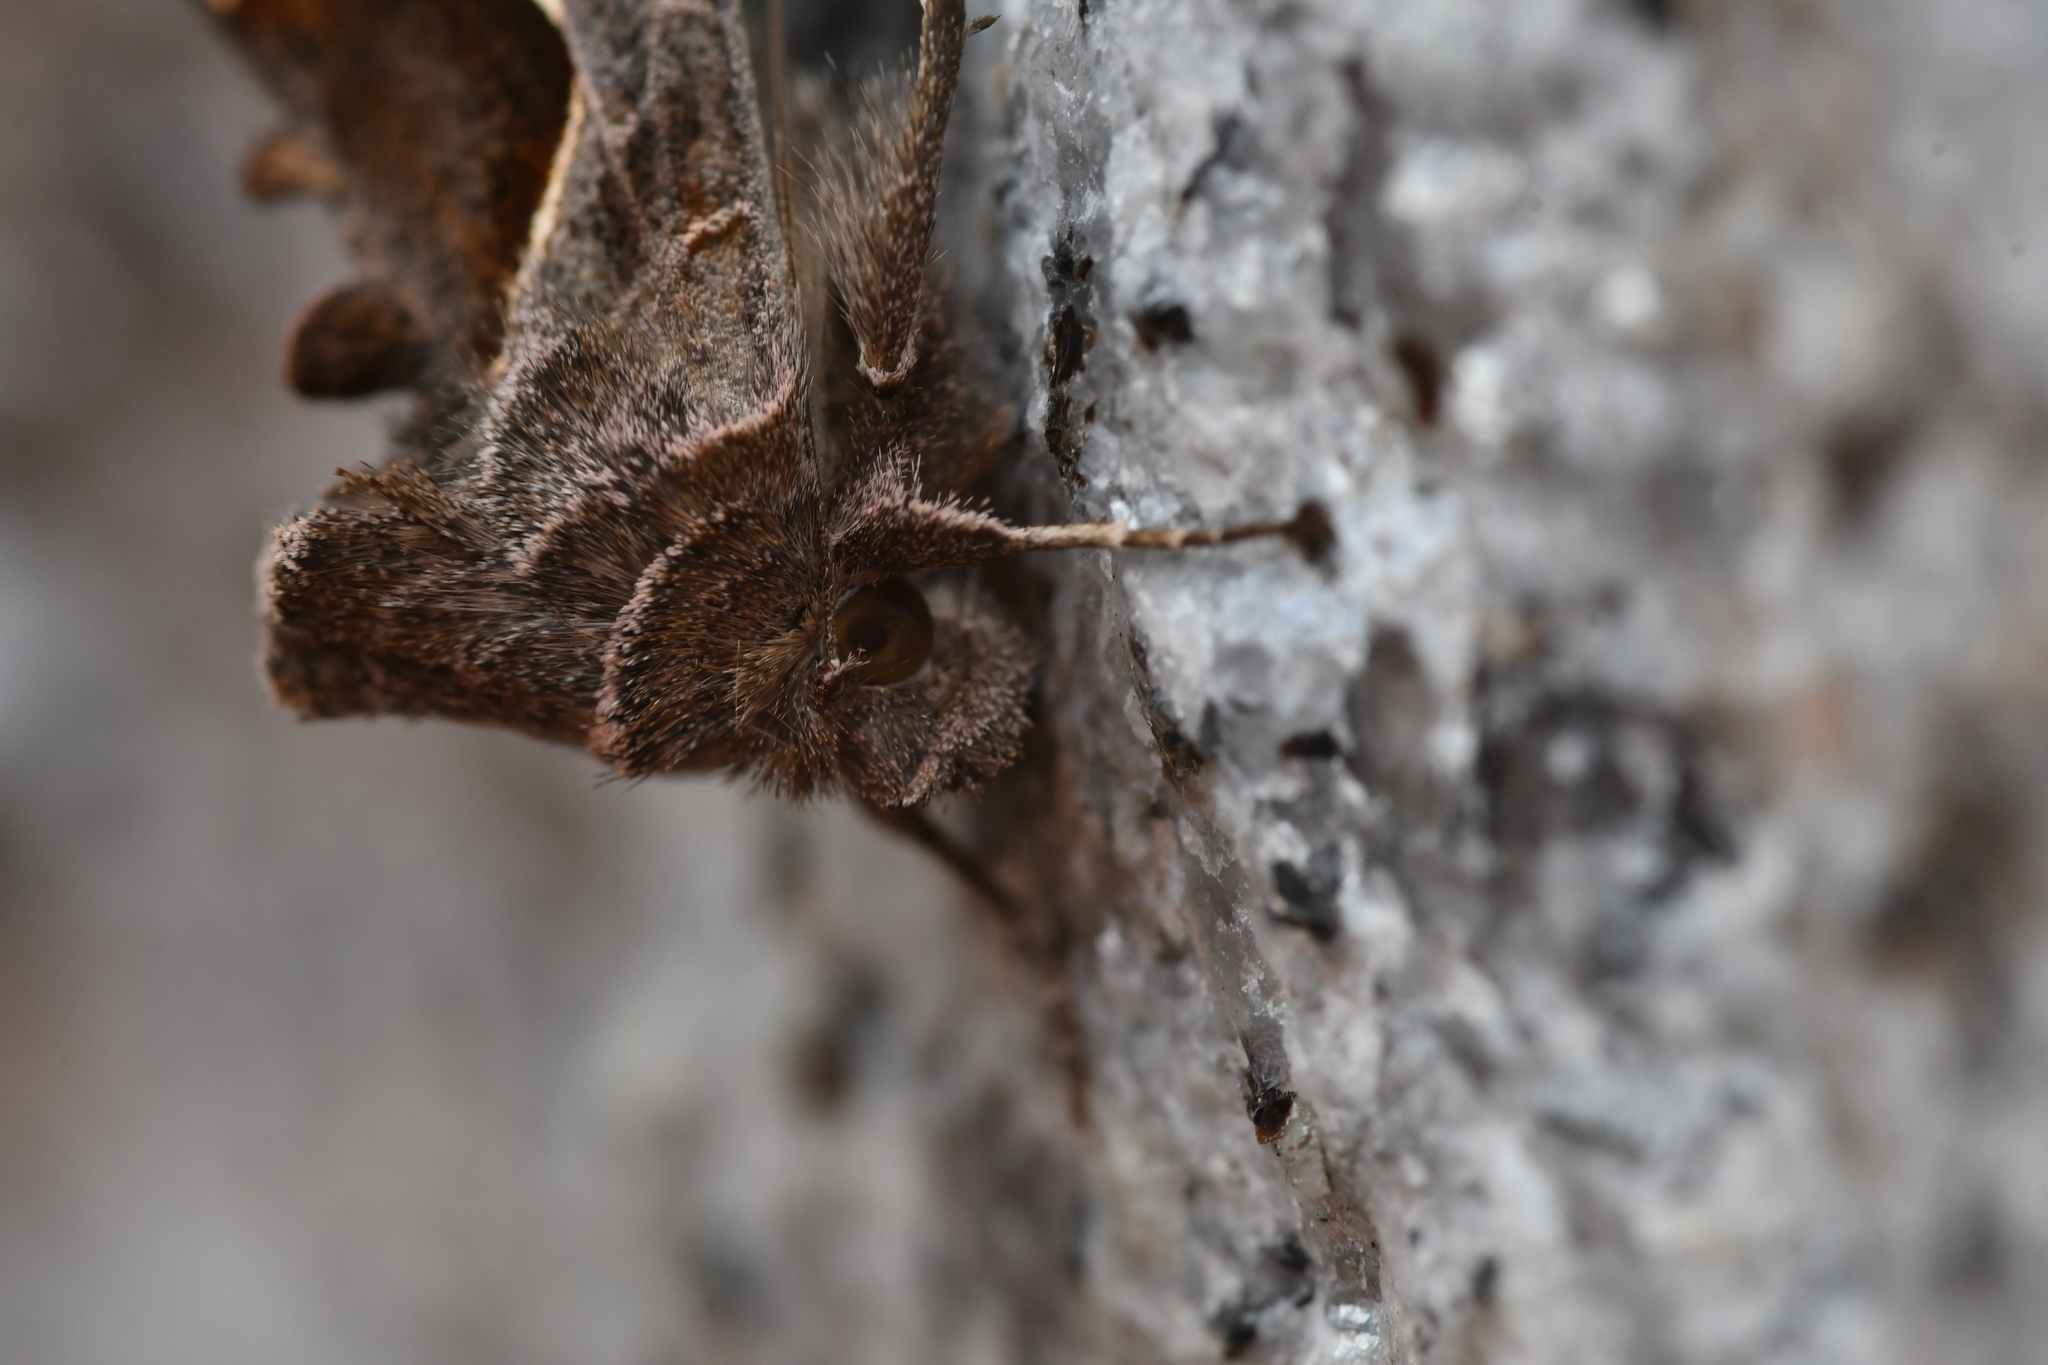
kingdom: Animalia
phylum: Arthropoda
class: Insecta
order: Lepidoptera
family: Noctuidae
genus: Macdunnoughia
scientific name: Macdunnoughia confusa
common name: Dewick's plusia
